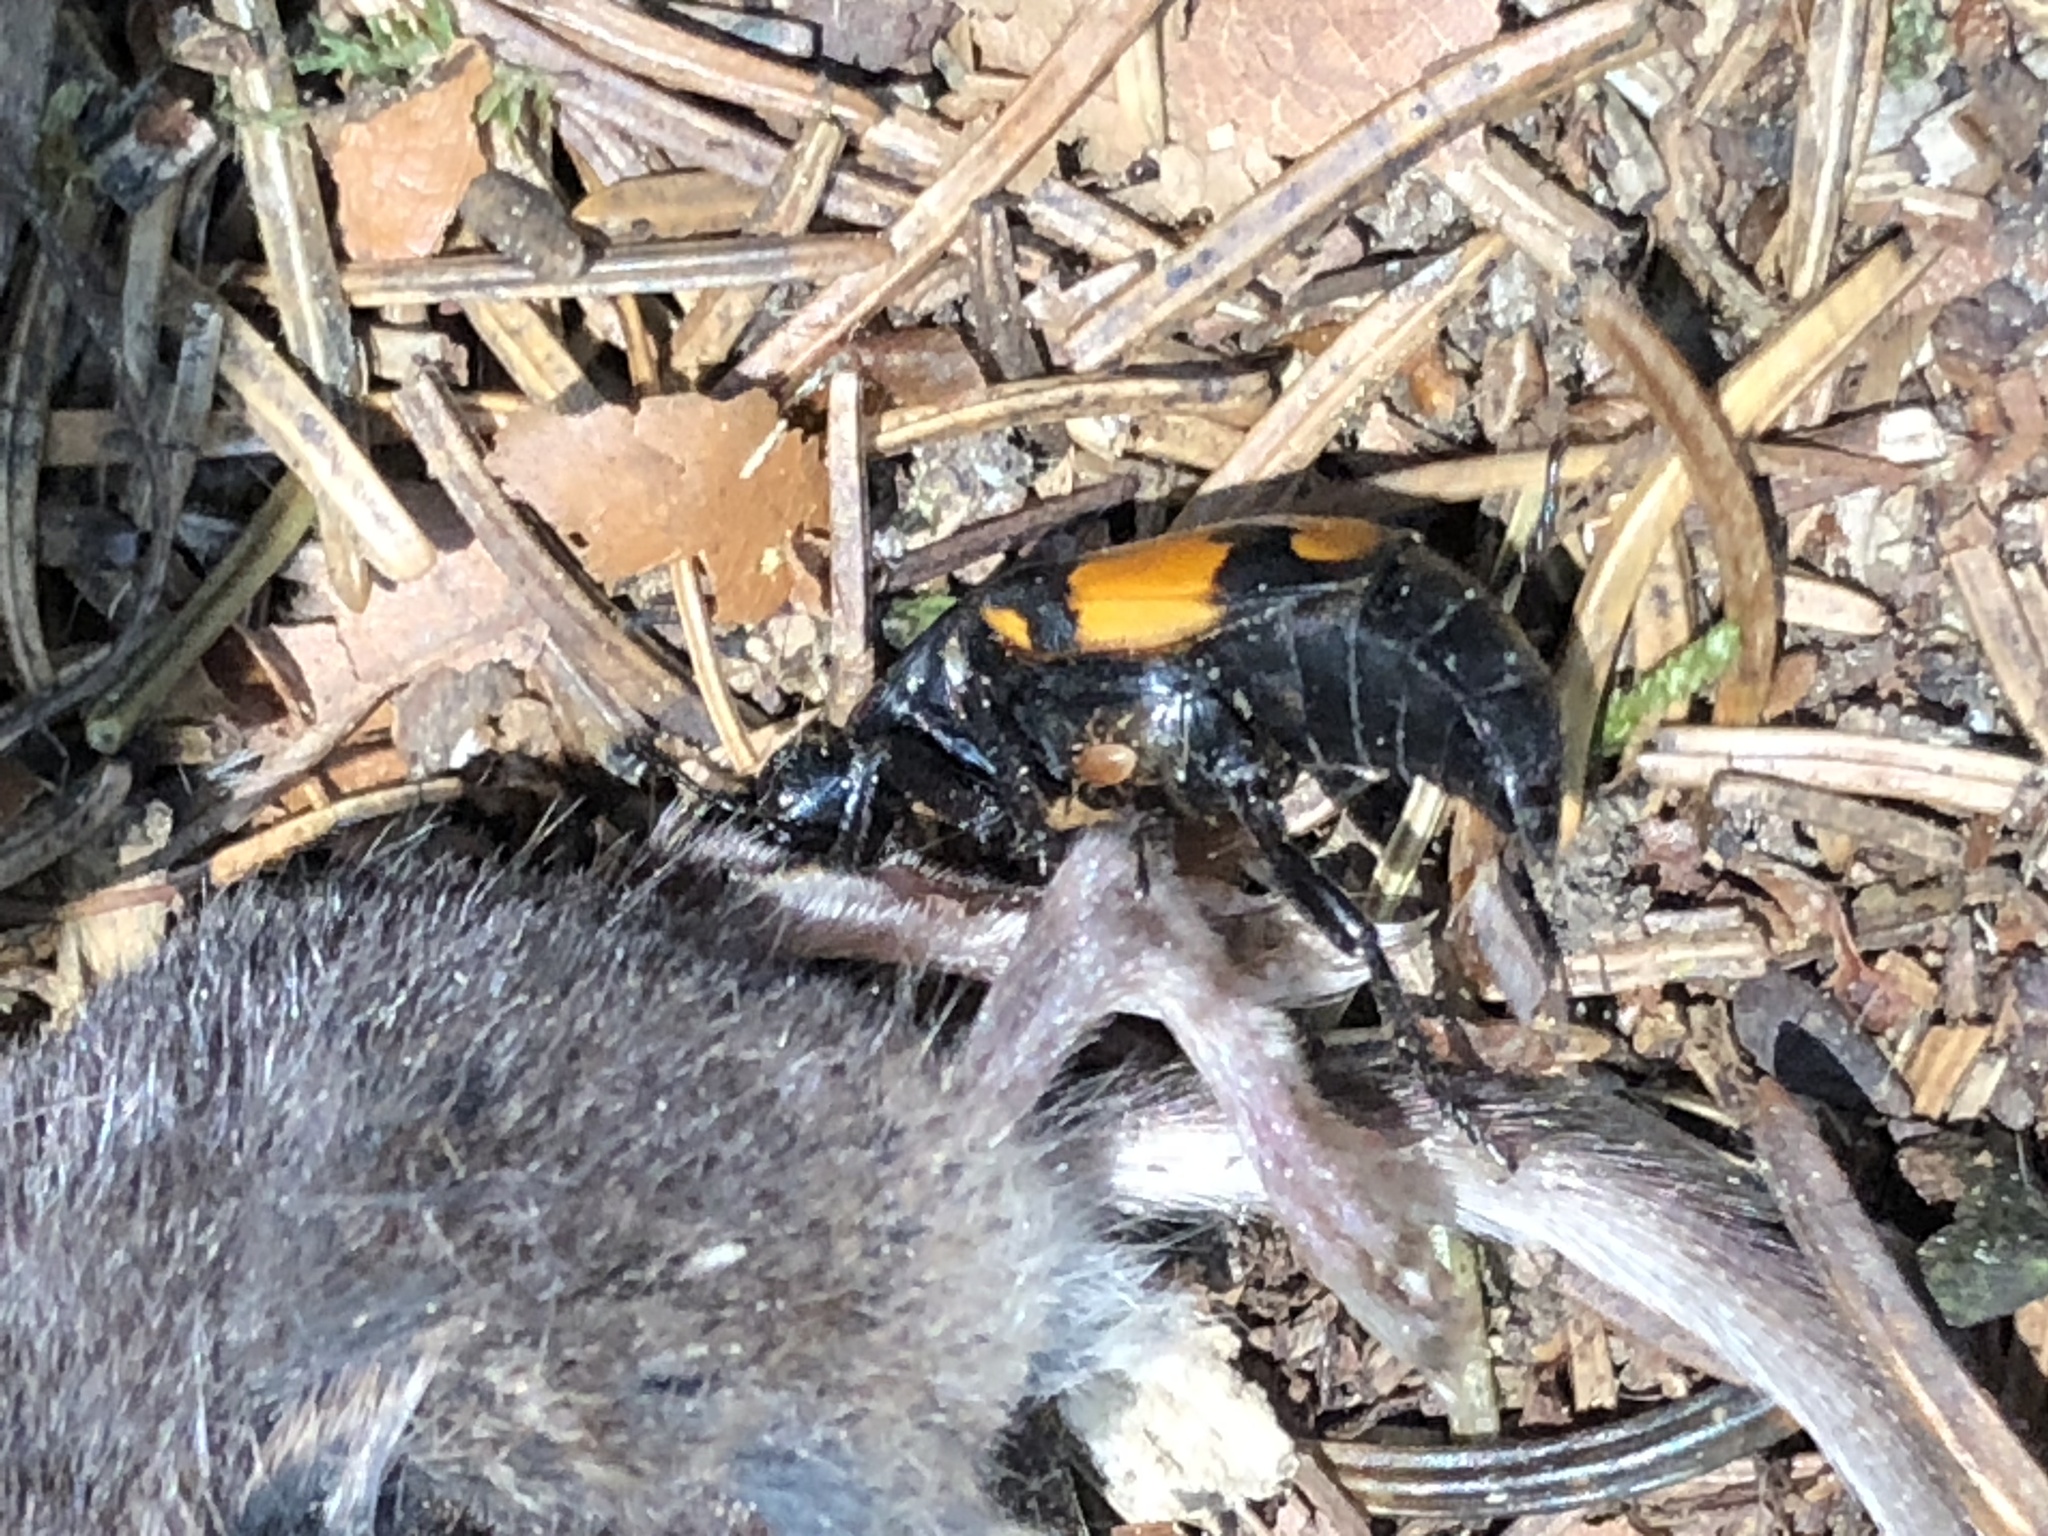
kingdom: Animalia
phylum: Arthropoda
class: Insecta
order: Coleoptera
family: Staphylinidae
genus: Nicrophorus
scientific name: Nicrophorus vespilloides
